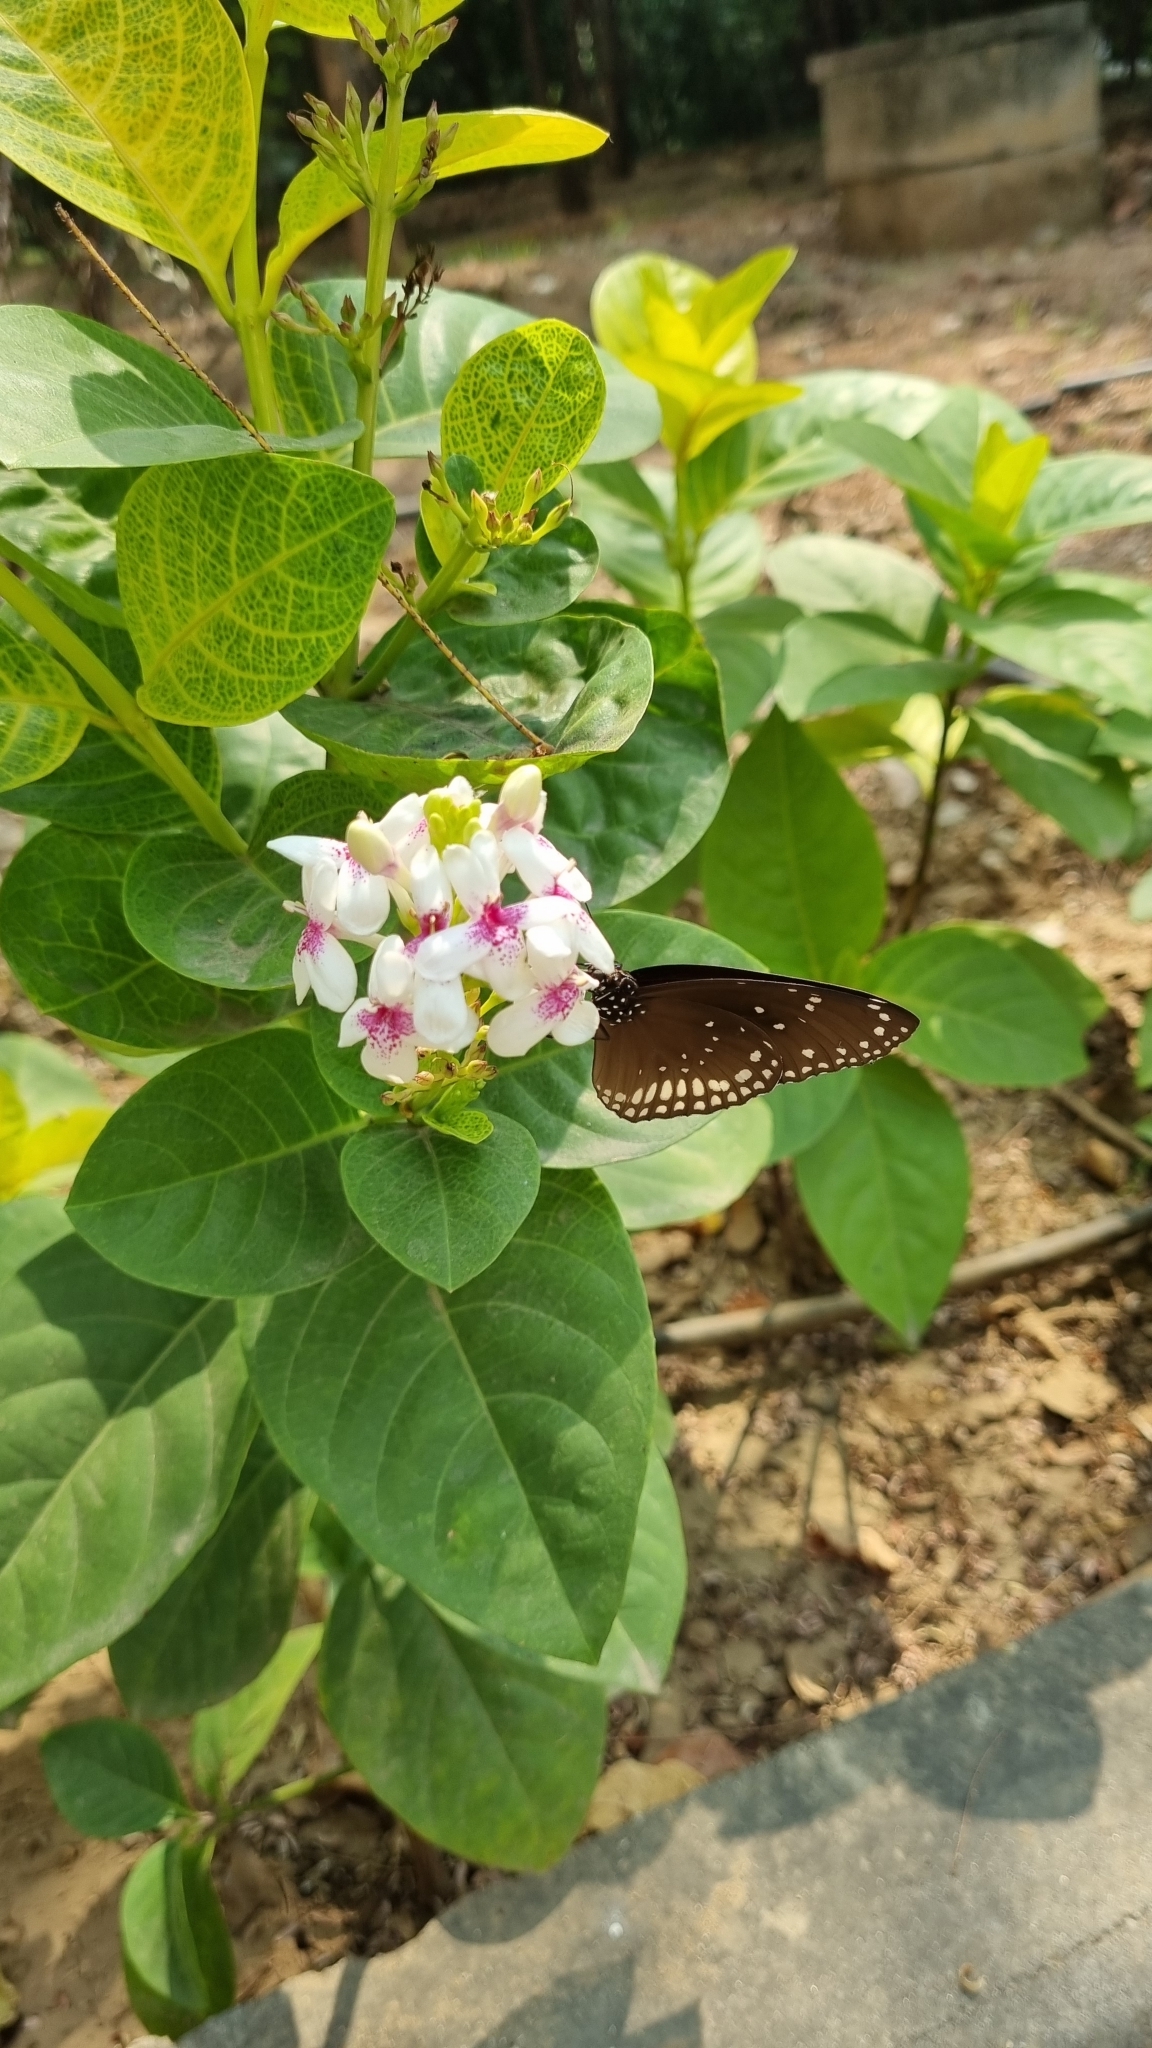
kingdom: Animalia
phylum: Arthropoda
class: Insecta
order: Lepidoptera
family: Nymphalidae
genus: Euploea
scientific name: Euploea sylvester
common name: Double-branded crow butterfly
